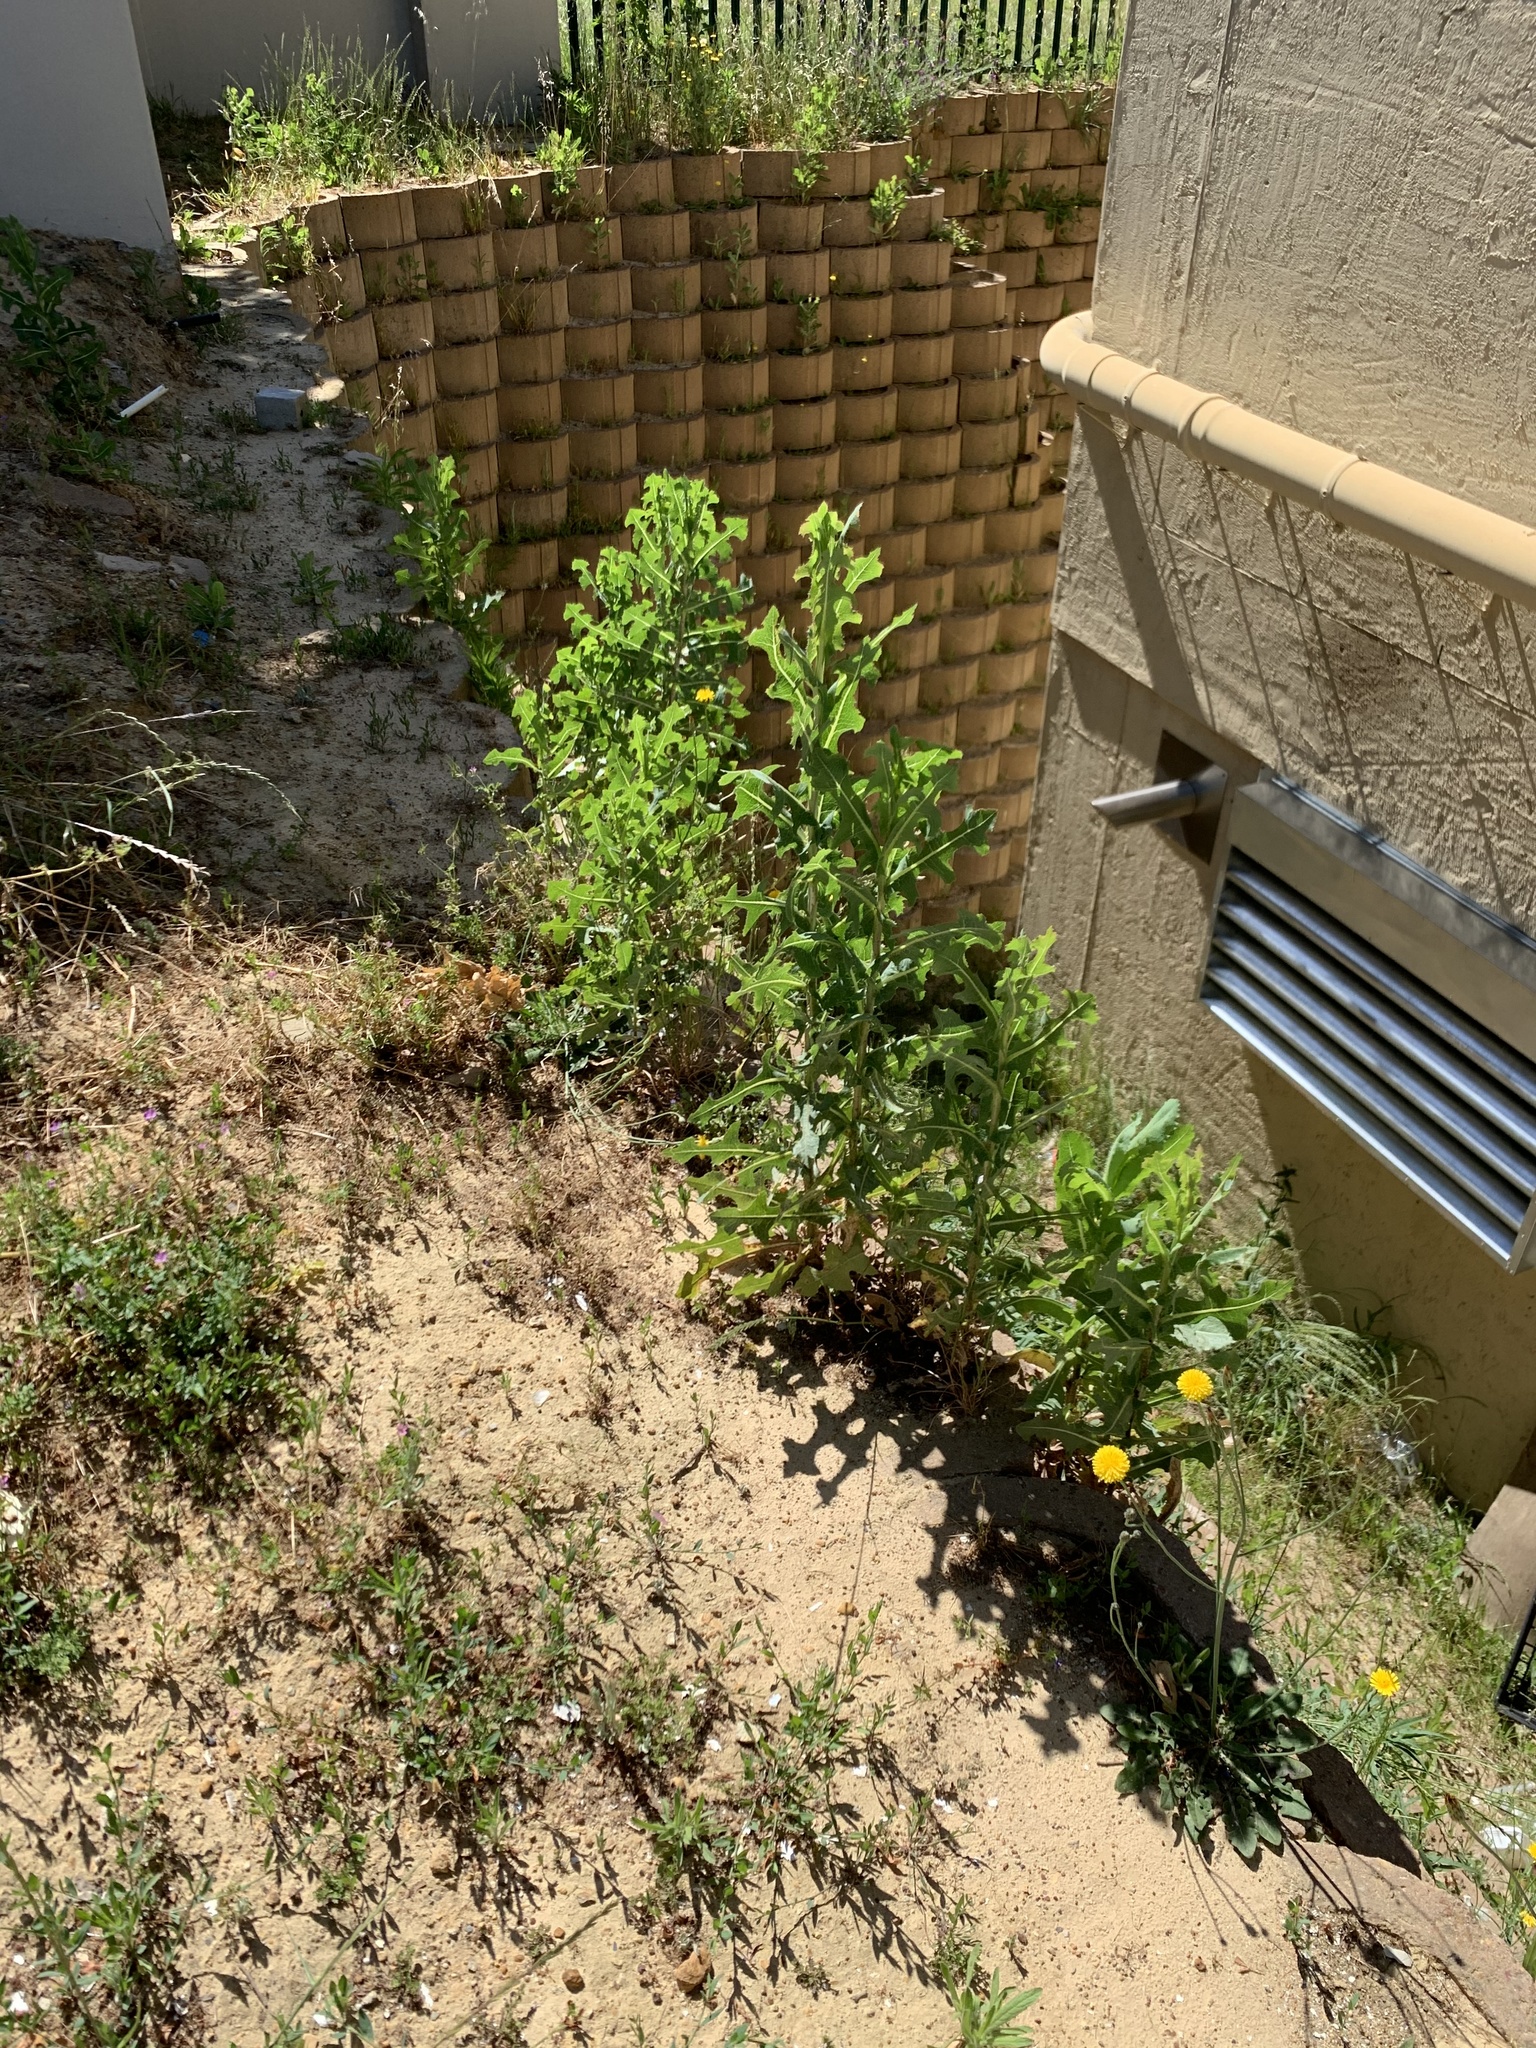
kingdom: Plantae
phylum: Tracheophyta
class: Magnoliopsida
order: Asterales
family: Asteraceae
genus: Lactuca
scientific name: Lactuca serriola
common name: Prickly lettuce
